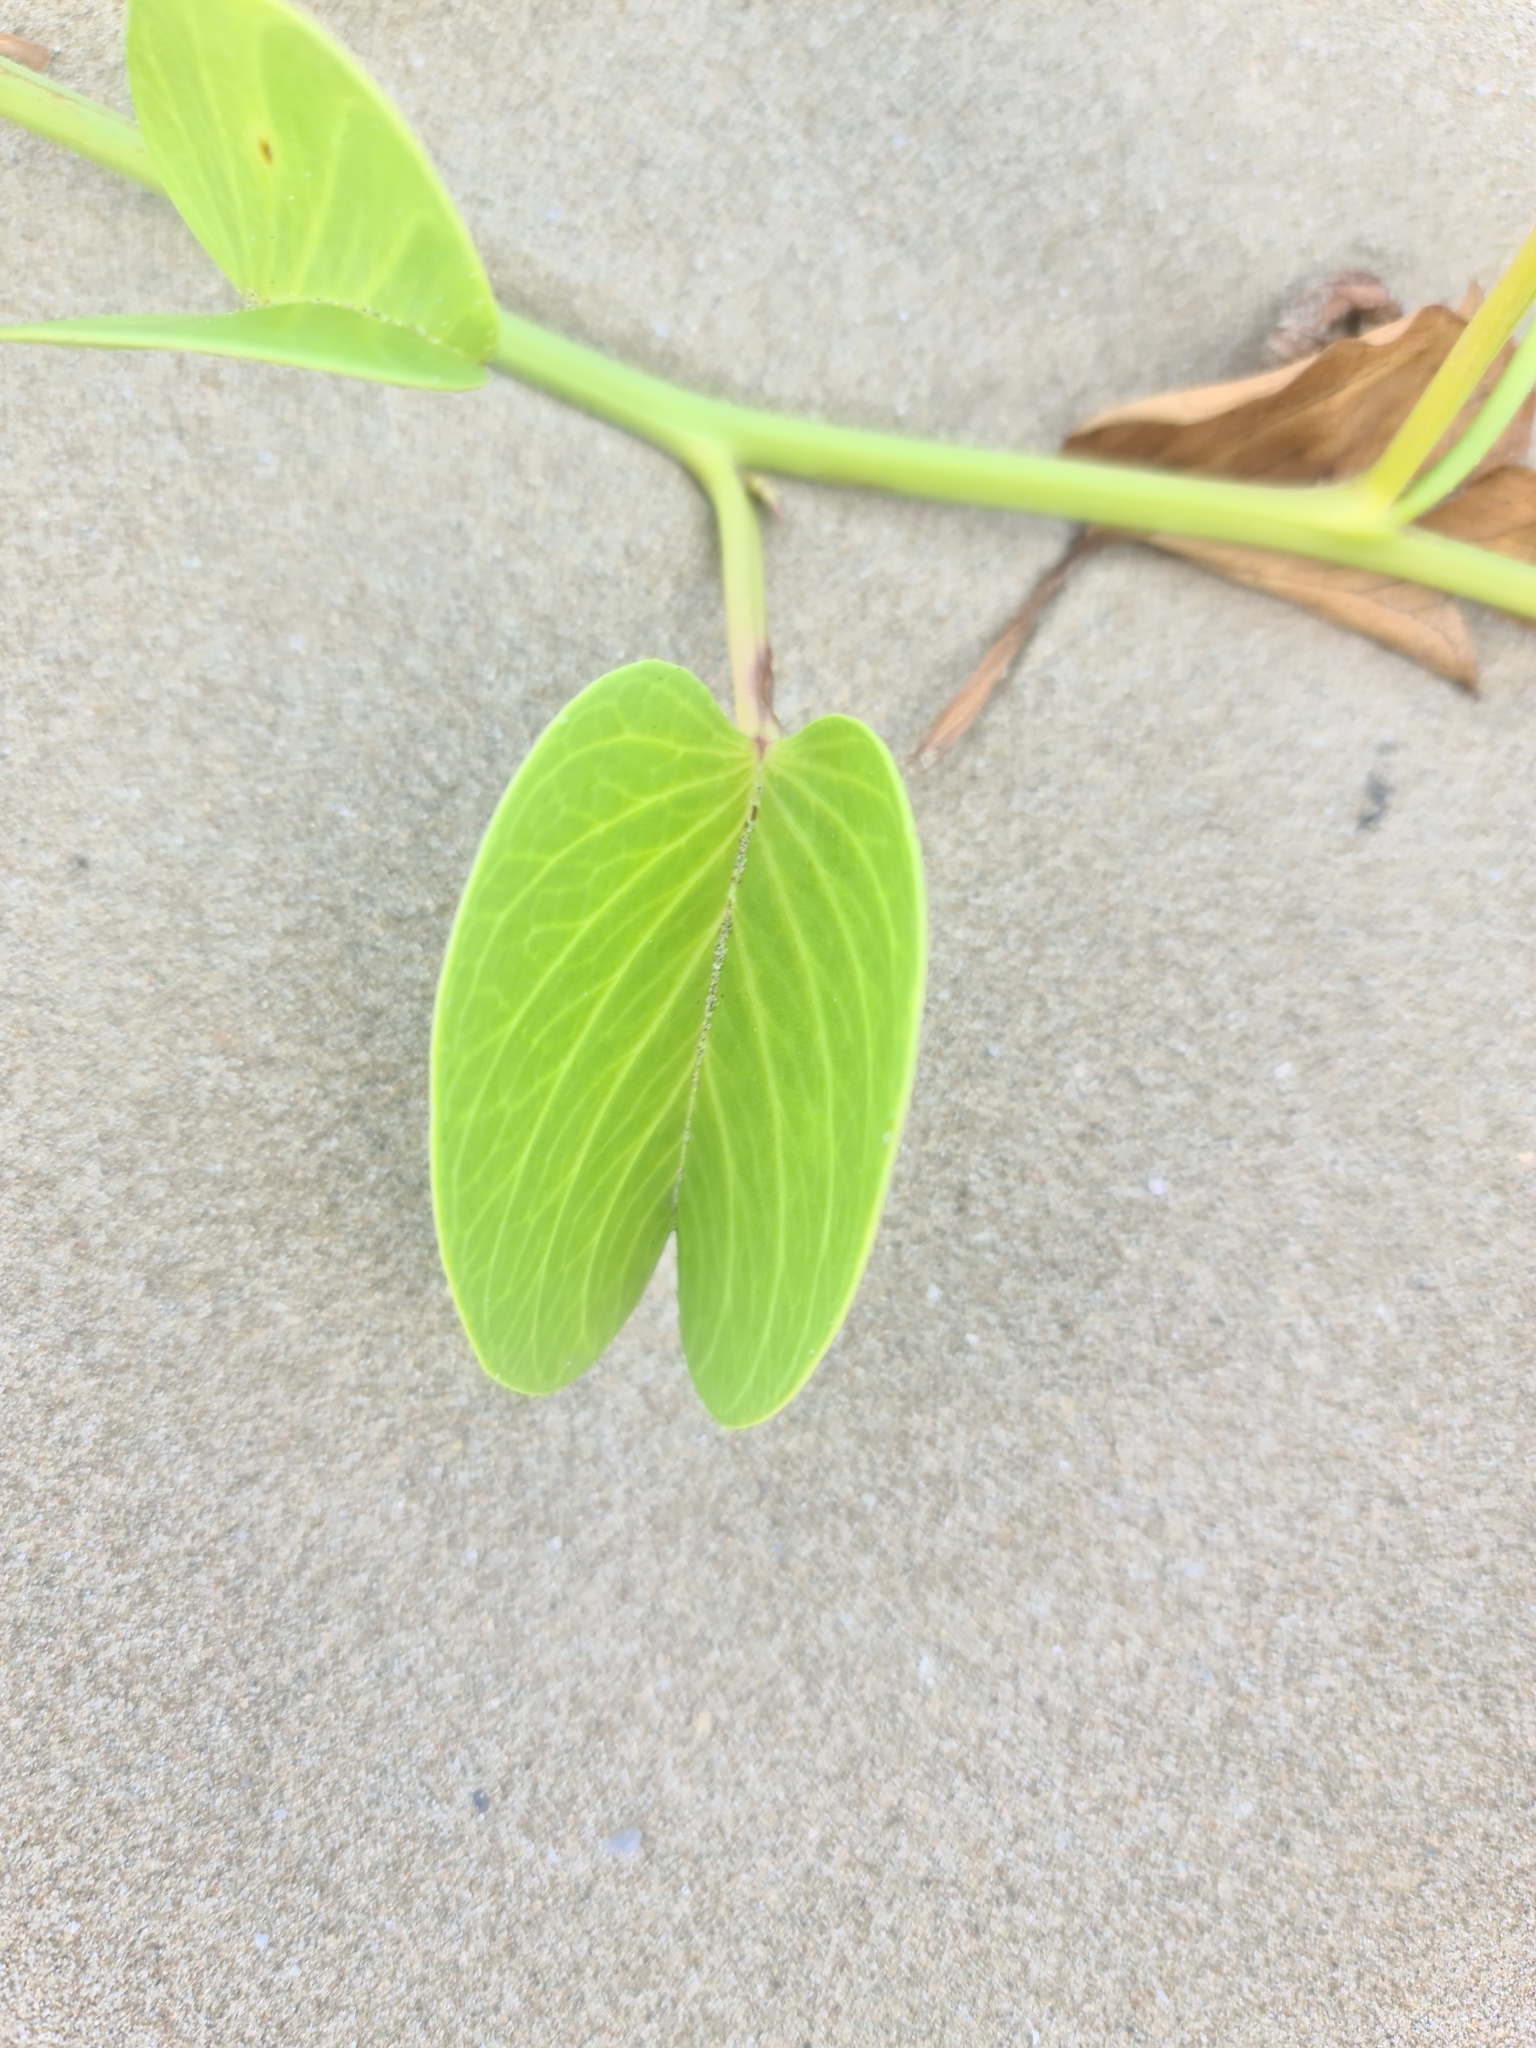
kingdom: Plantae
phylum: Tracheophyta
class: Magnoliopsida
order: Solanales
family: Convolvulaceae
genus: Ipomoea
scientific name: Ipomoea pes-caprae
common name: Beach morning glory
